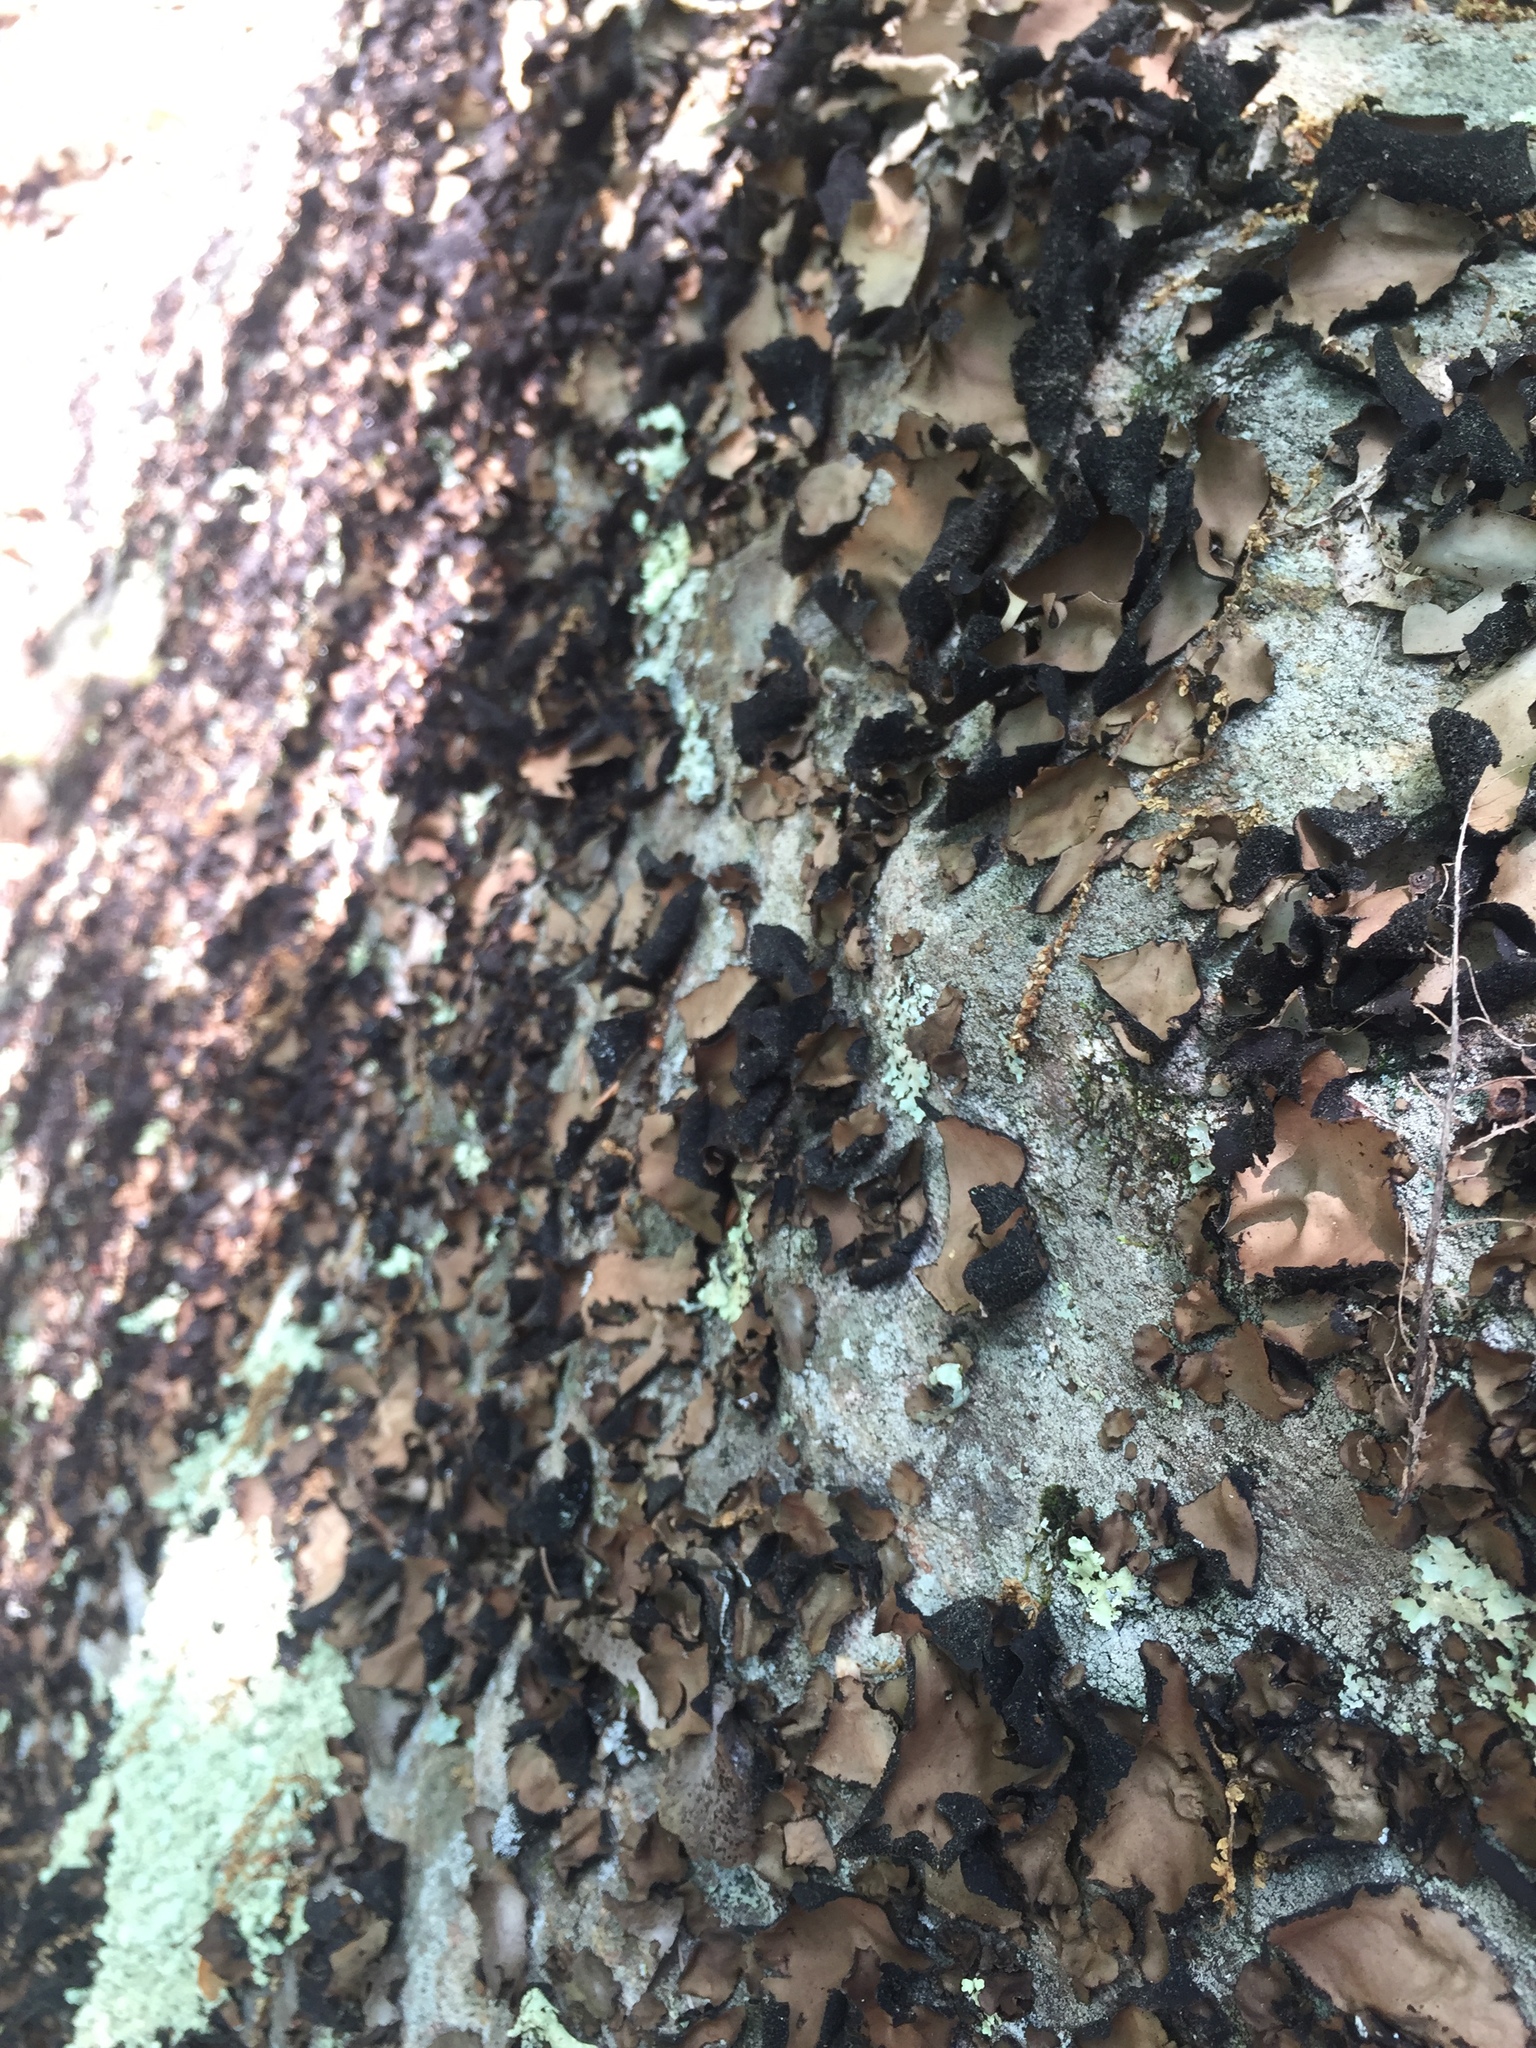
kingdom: Fungi
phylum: Ascomycota
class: Lecanoromycetes
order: Umbilicariales
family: Umbilicariaceae
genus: Umbilicaria
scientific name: Umbilicaria mammulata
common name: Smooth rock tripe
